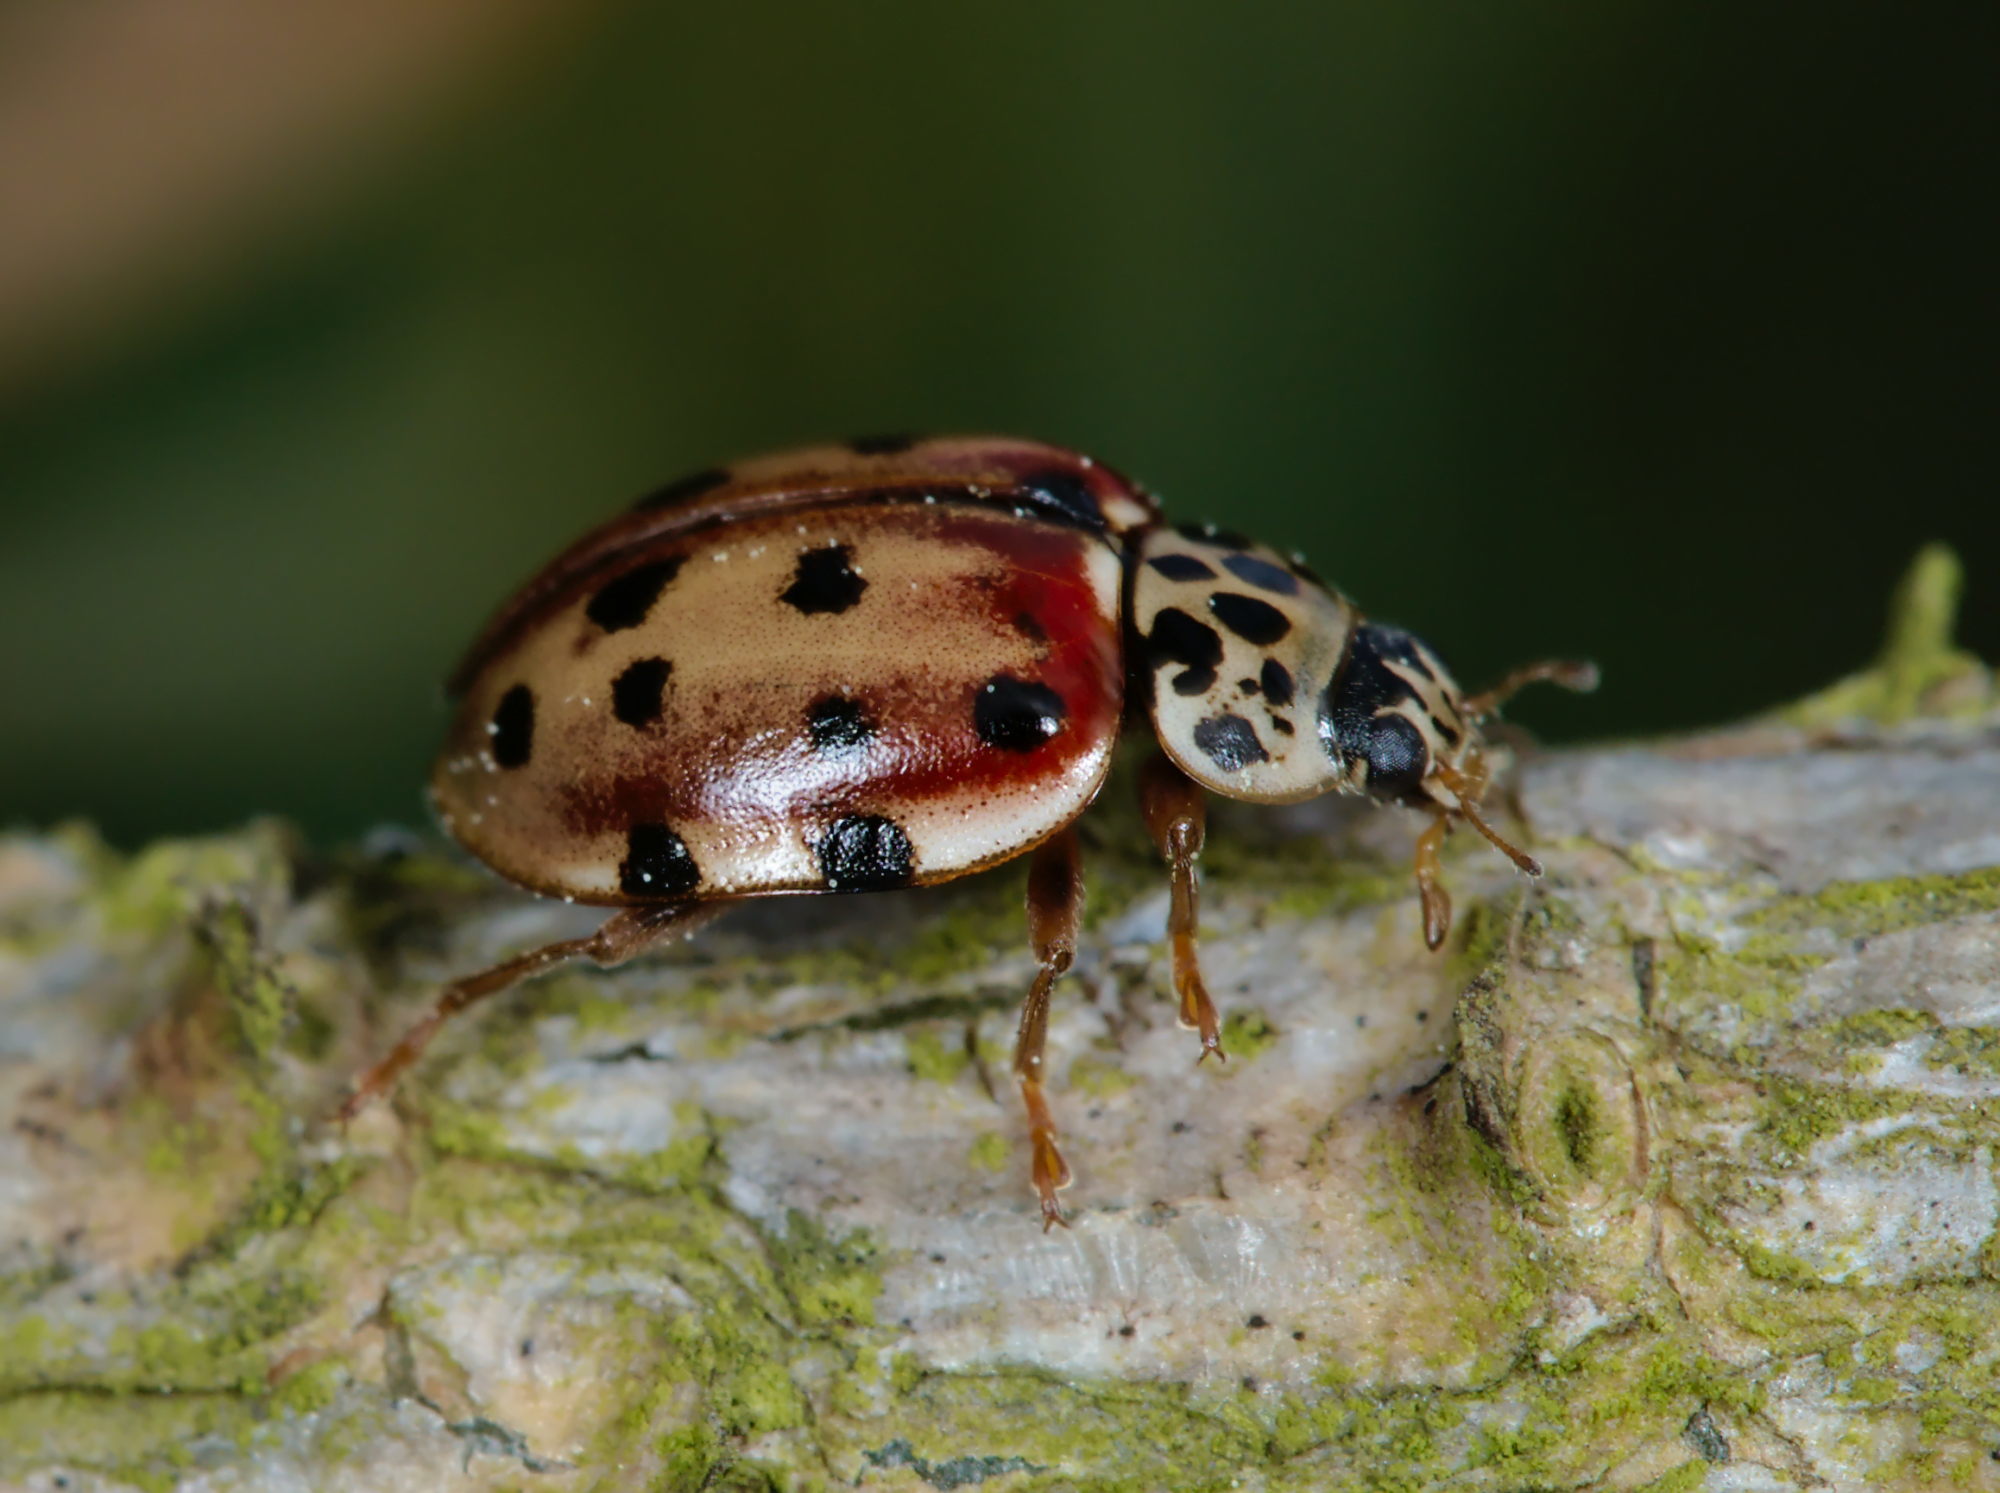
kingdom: Animalia
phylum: Arthropoda
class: Insecta
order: Coleoptera
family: Coccinellidae
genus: Harmonia
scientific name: Harmonia quadripunctata
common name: Cream-streaked ladybird
